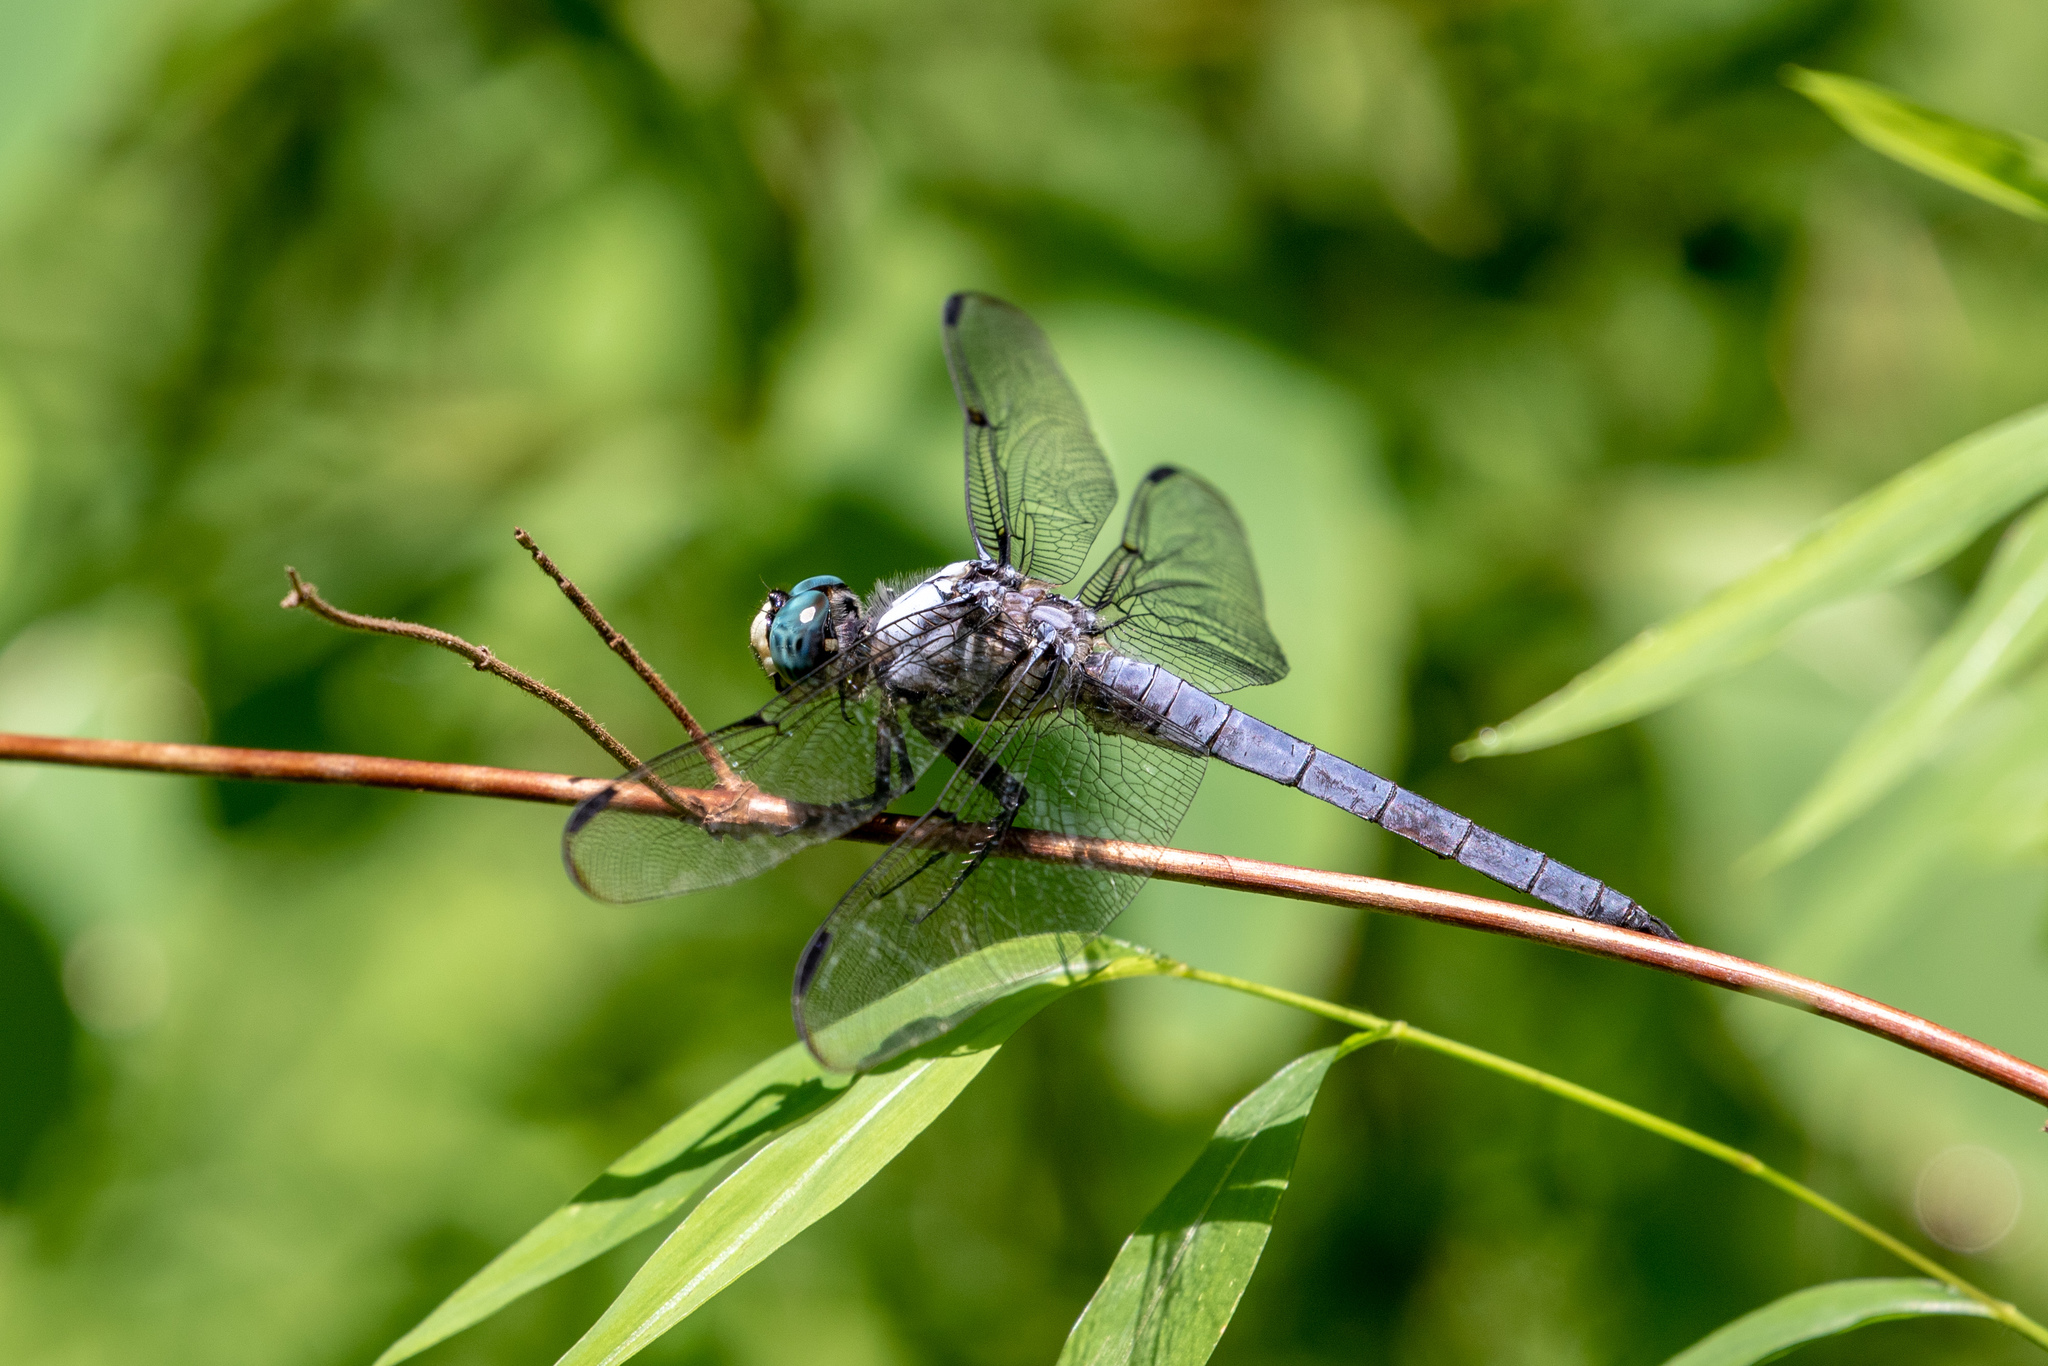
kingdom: Animalia
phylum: Arthropoda
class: Insecta
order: Odonata
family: Libellulidae
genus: Libellula
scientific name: Libellula vibrans
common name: Great blue skimmer
